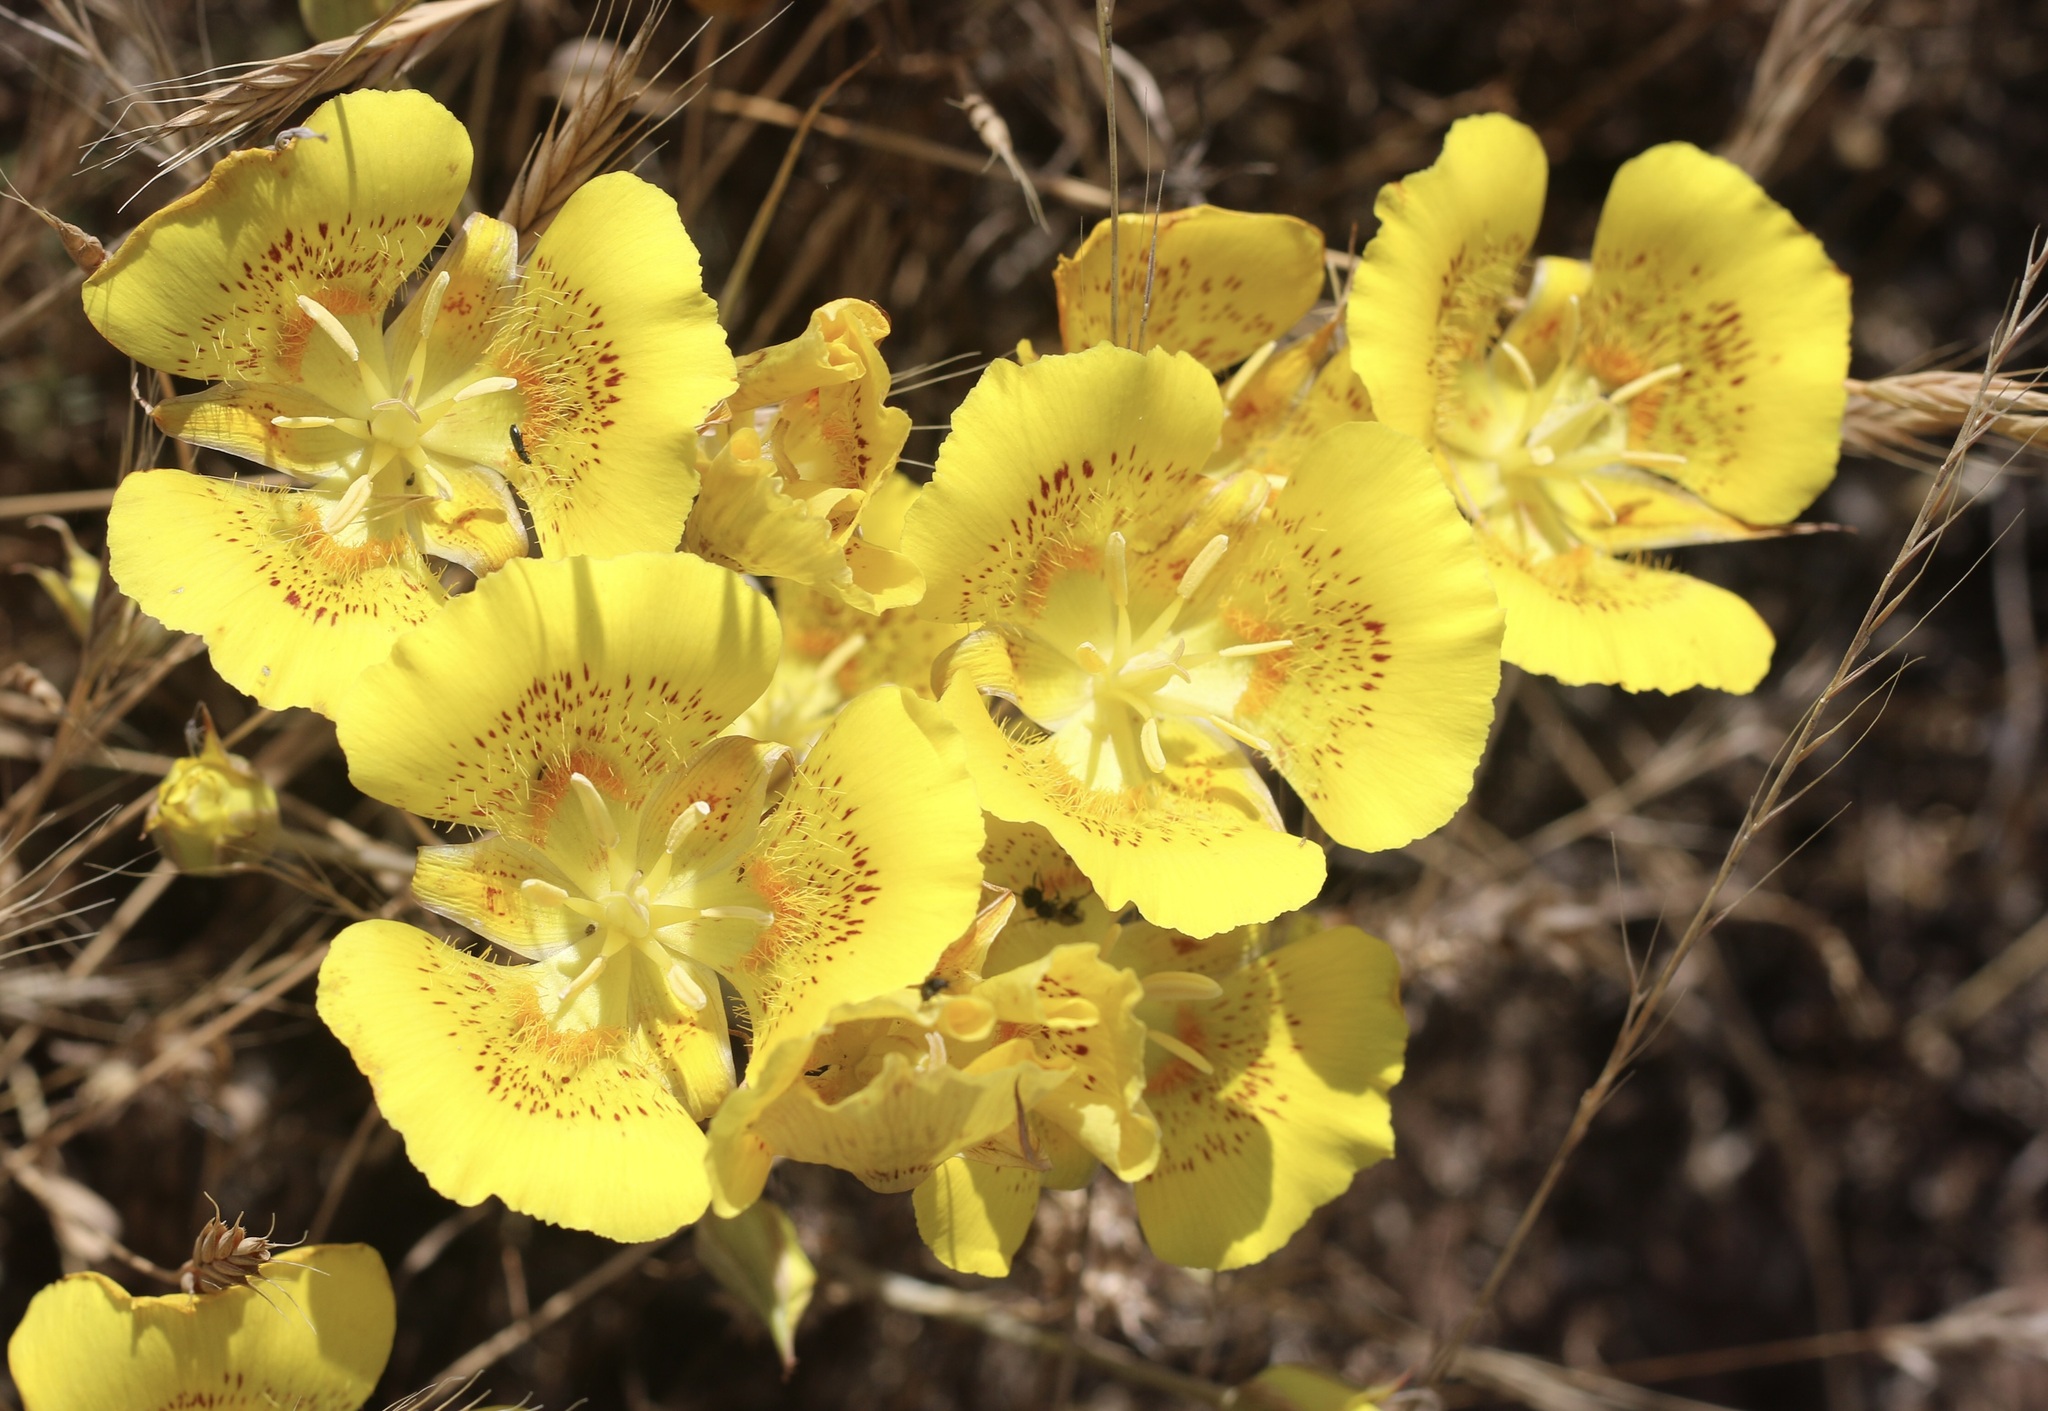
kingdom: Plantae
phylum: Tracheophyta
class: Liliopsida
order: Liliales
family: Liliaceae
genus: Calochortus
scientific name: Calochortus luteus
